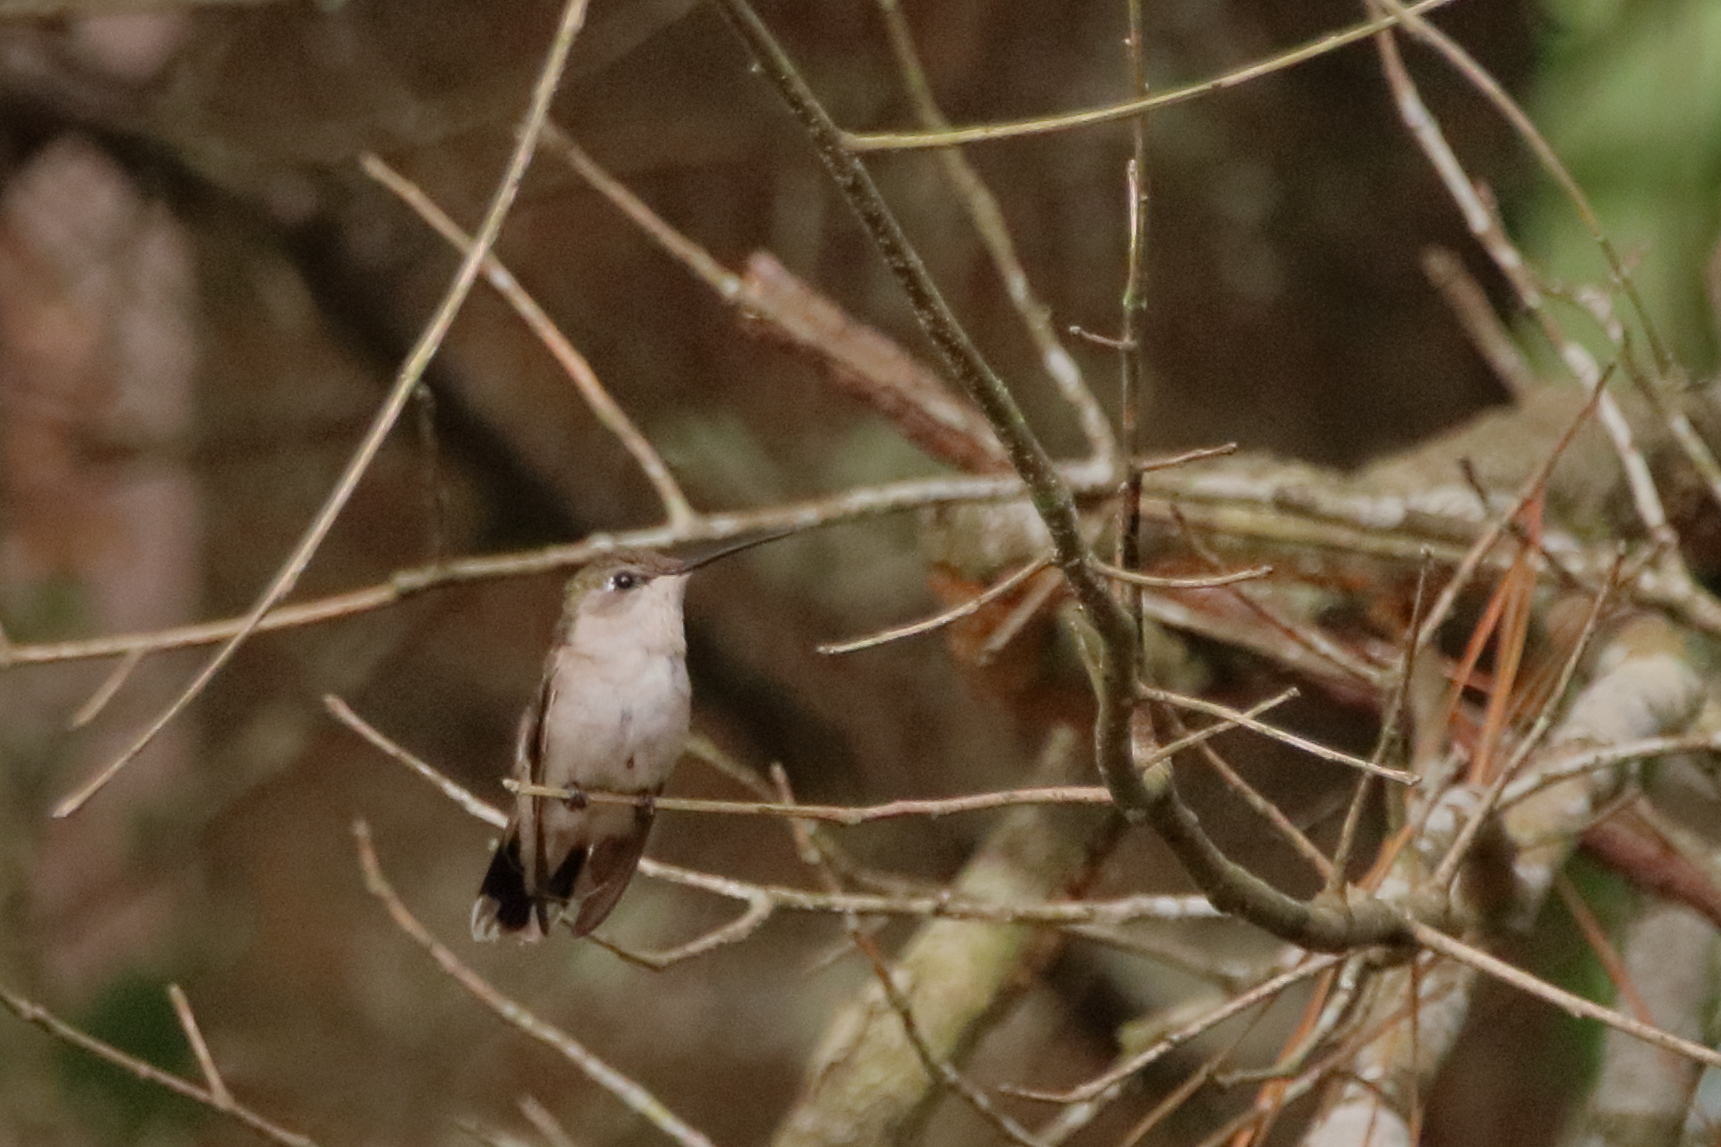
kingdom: Animalia
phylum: Chordata
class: Aves
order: Apodiformes
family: Trochilidae
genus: Archilochus
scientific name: Archilochus colubris
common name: Ruby-throated hummingbird
